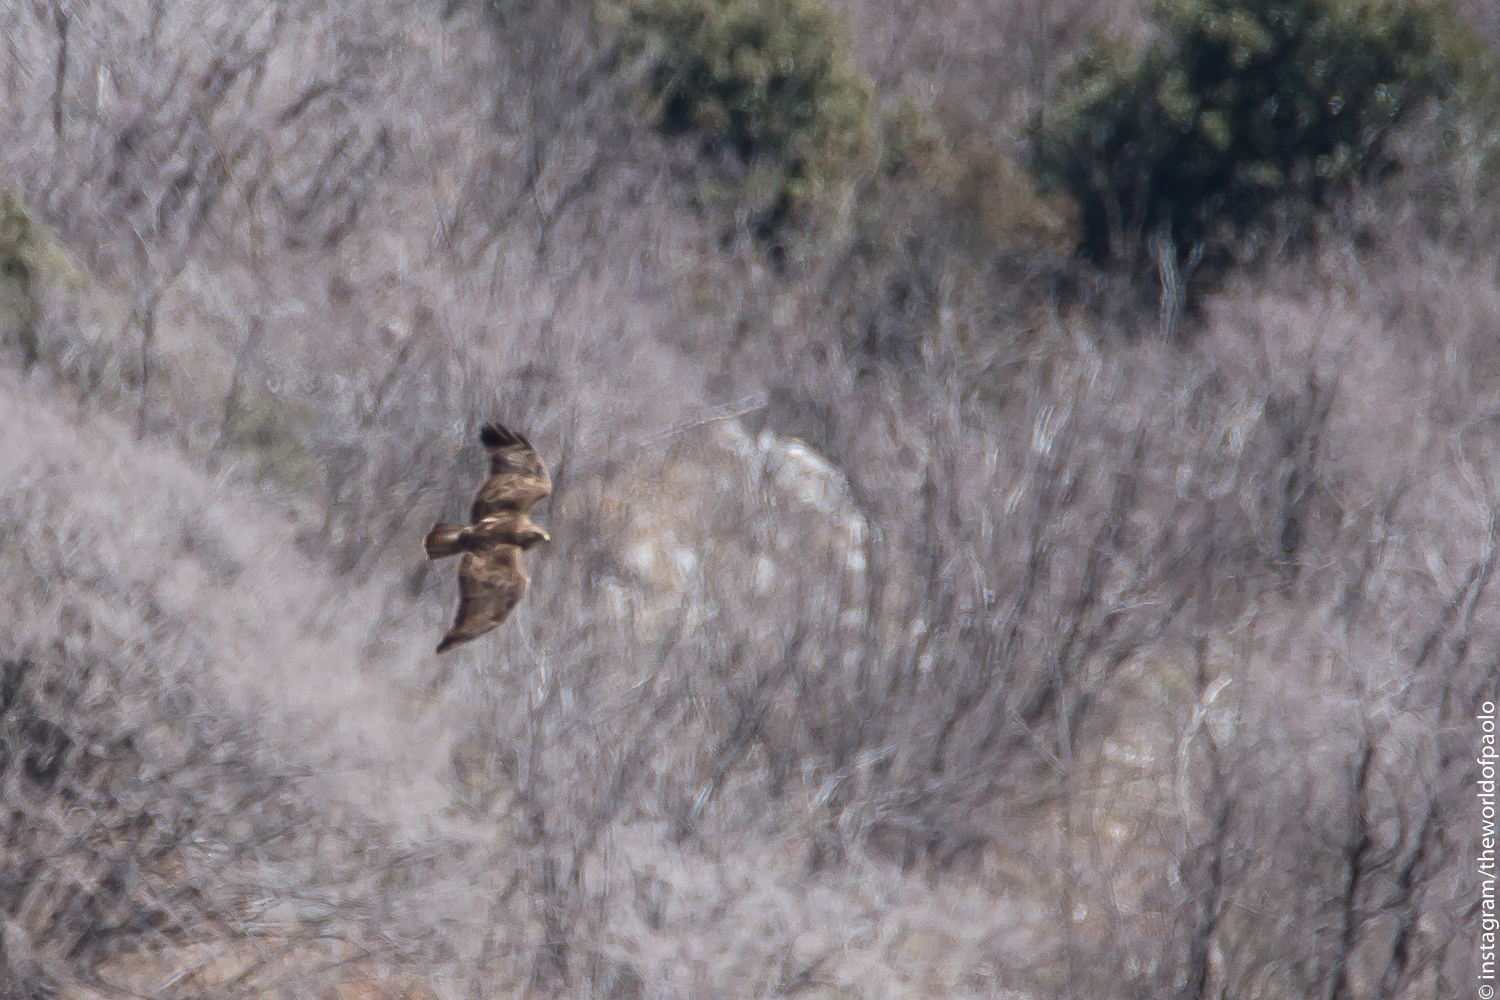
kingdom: Animalia
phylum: Chordata
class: Aves
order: Accipitriformes
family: Accipitridae
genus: Buteo
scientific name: Buteo buteo
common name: Common buzzard
